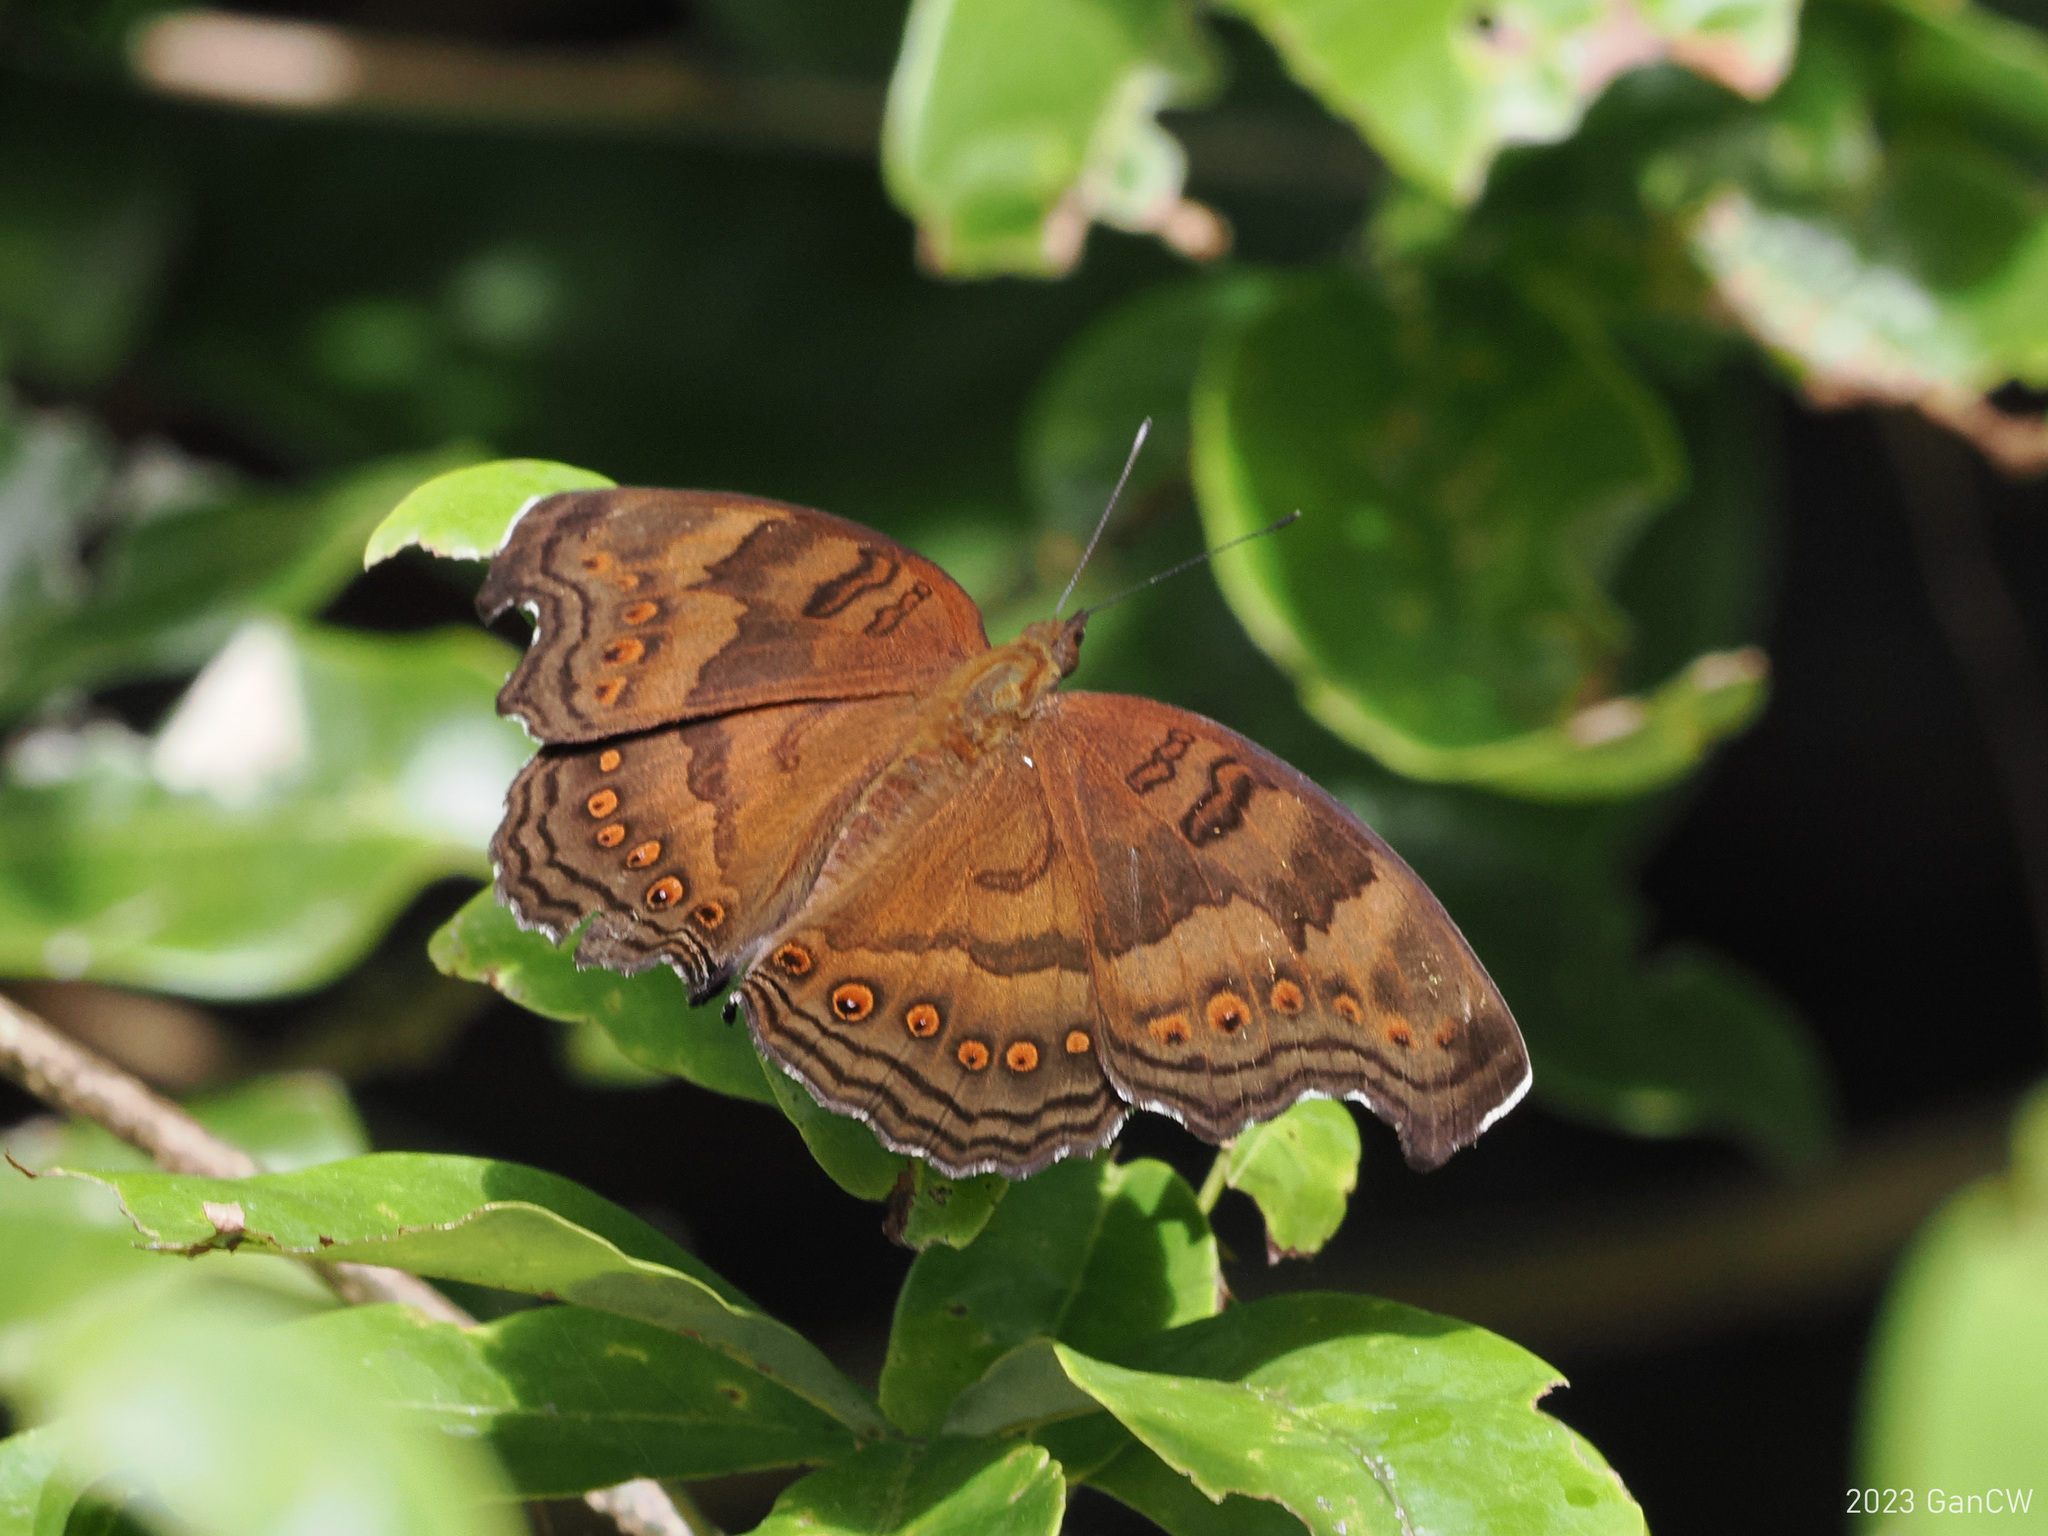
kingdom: Animalia
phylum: Arthropoda
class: Insecta
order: Lepidoptera
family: Nymphalidae
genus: Junonia
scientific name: Junonia
